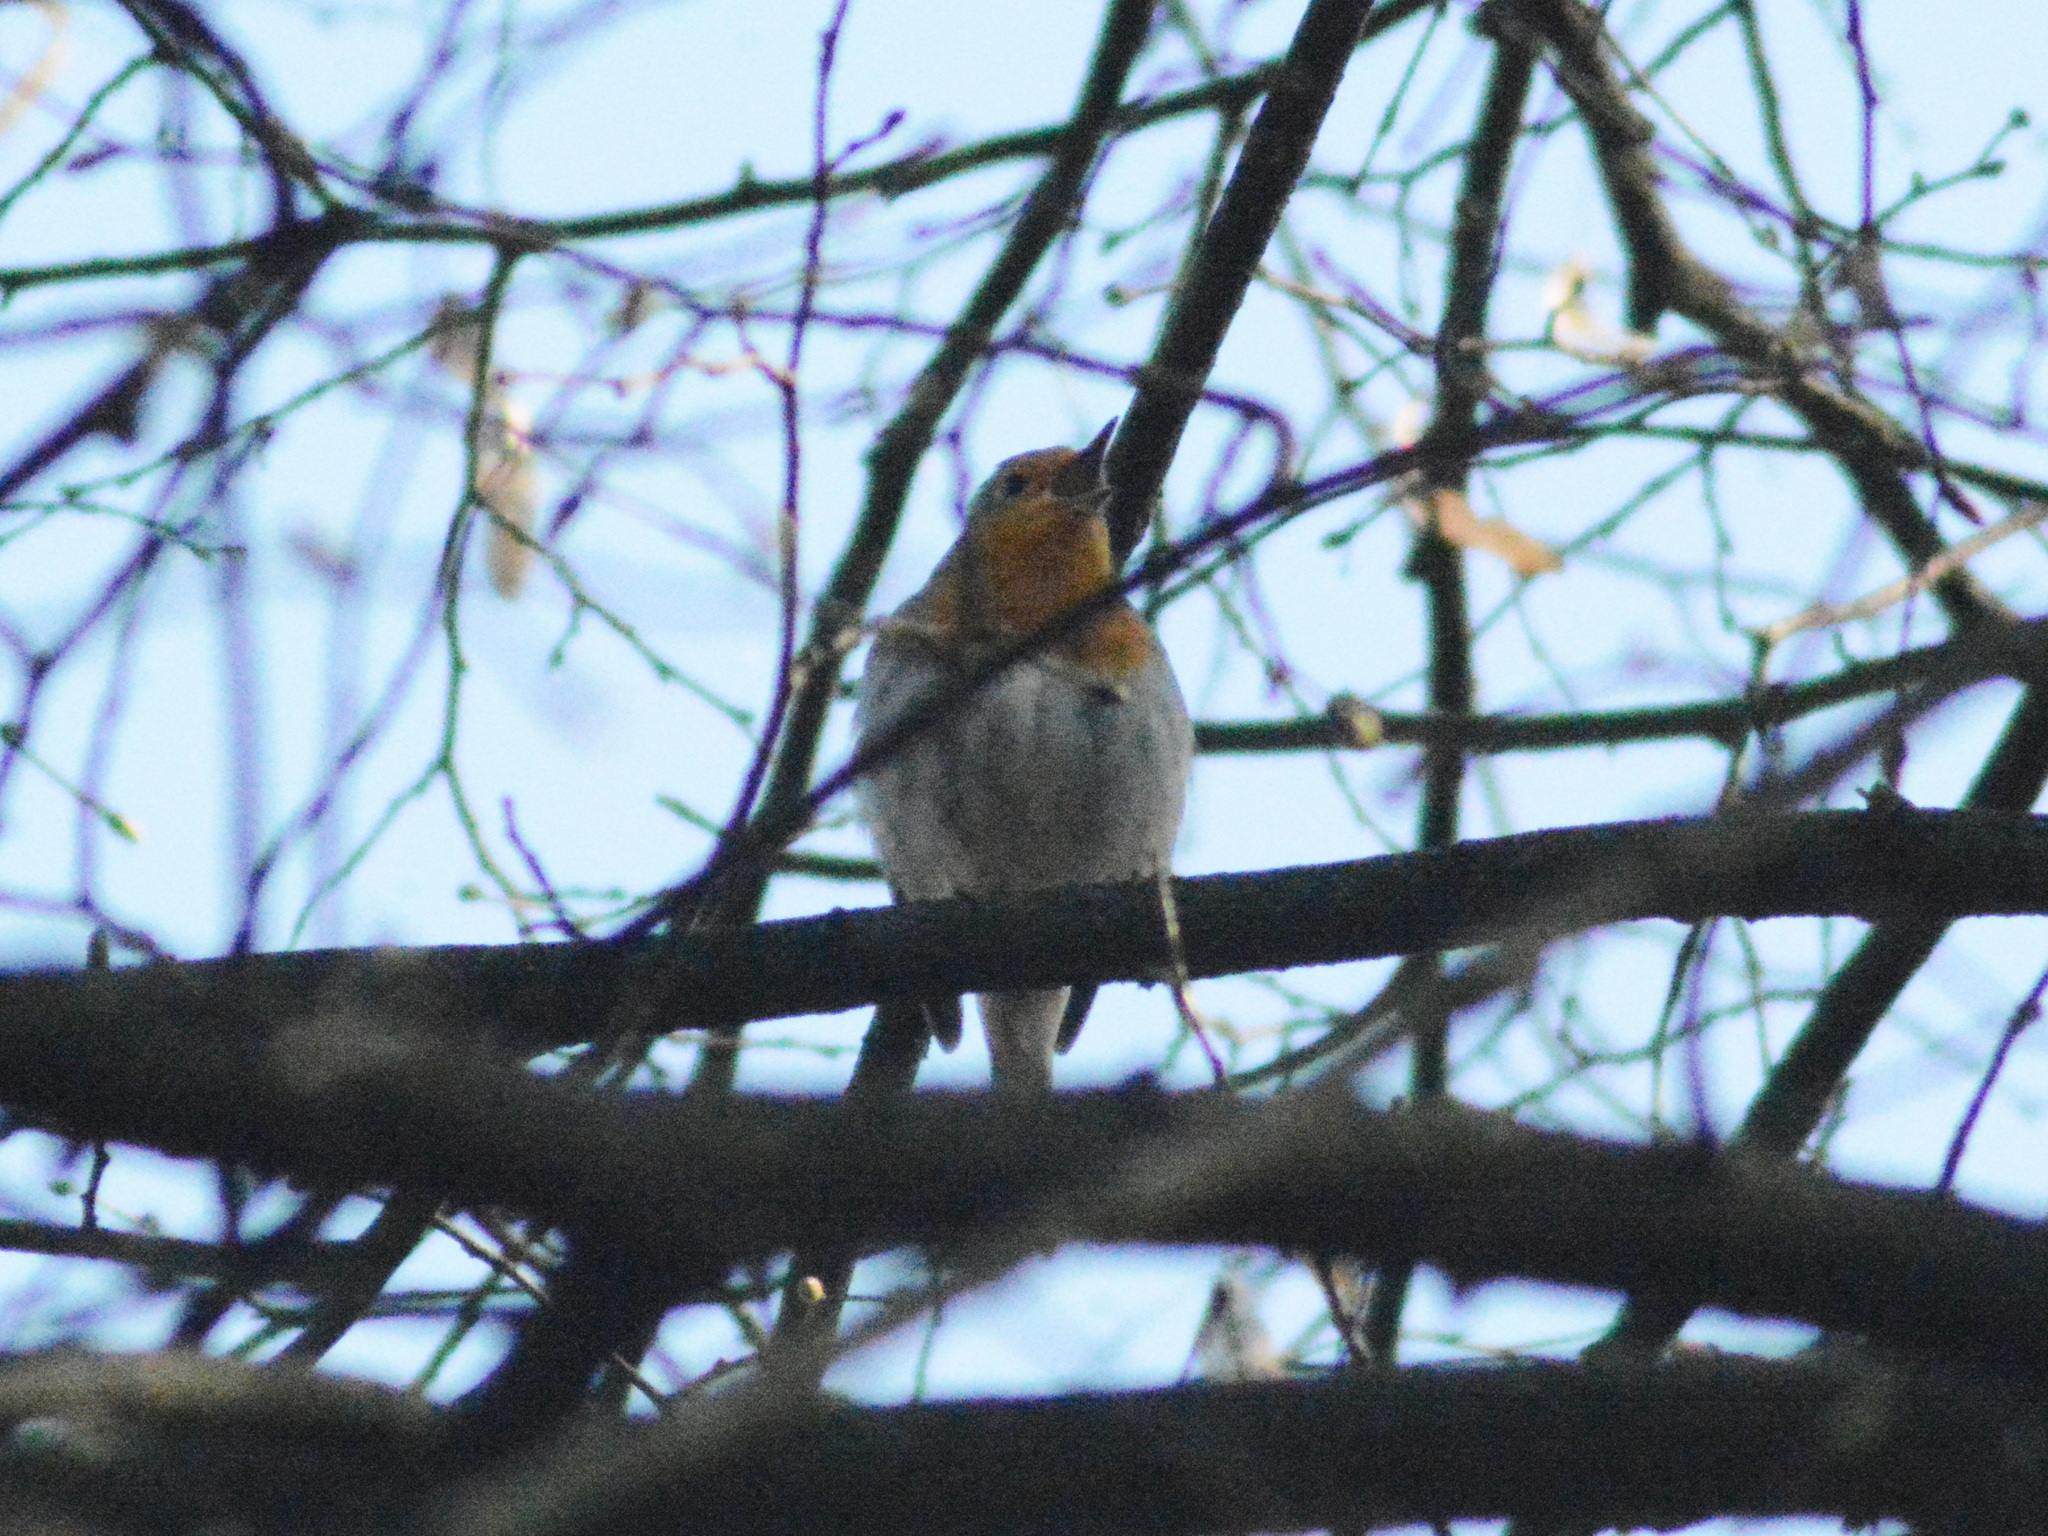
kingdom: Animalia
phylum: Chordata
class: Aves
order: Passeriformes
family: Muscicapidae
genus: Erithacus
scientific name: Erithacus rubecula
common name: European robin
